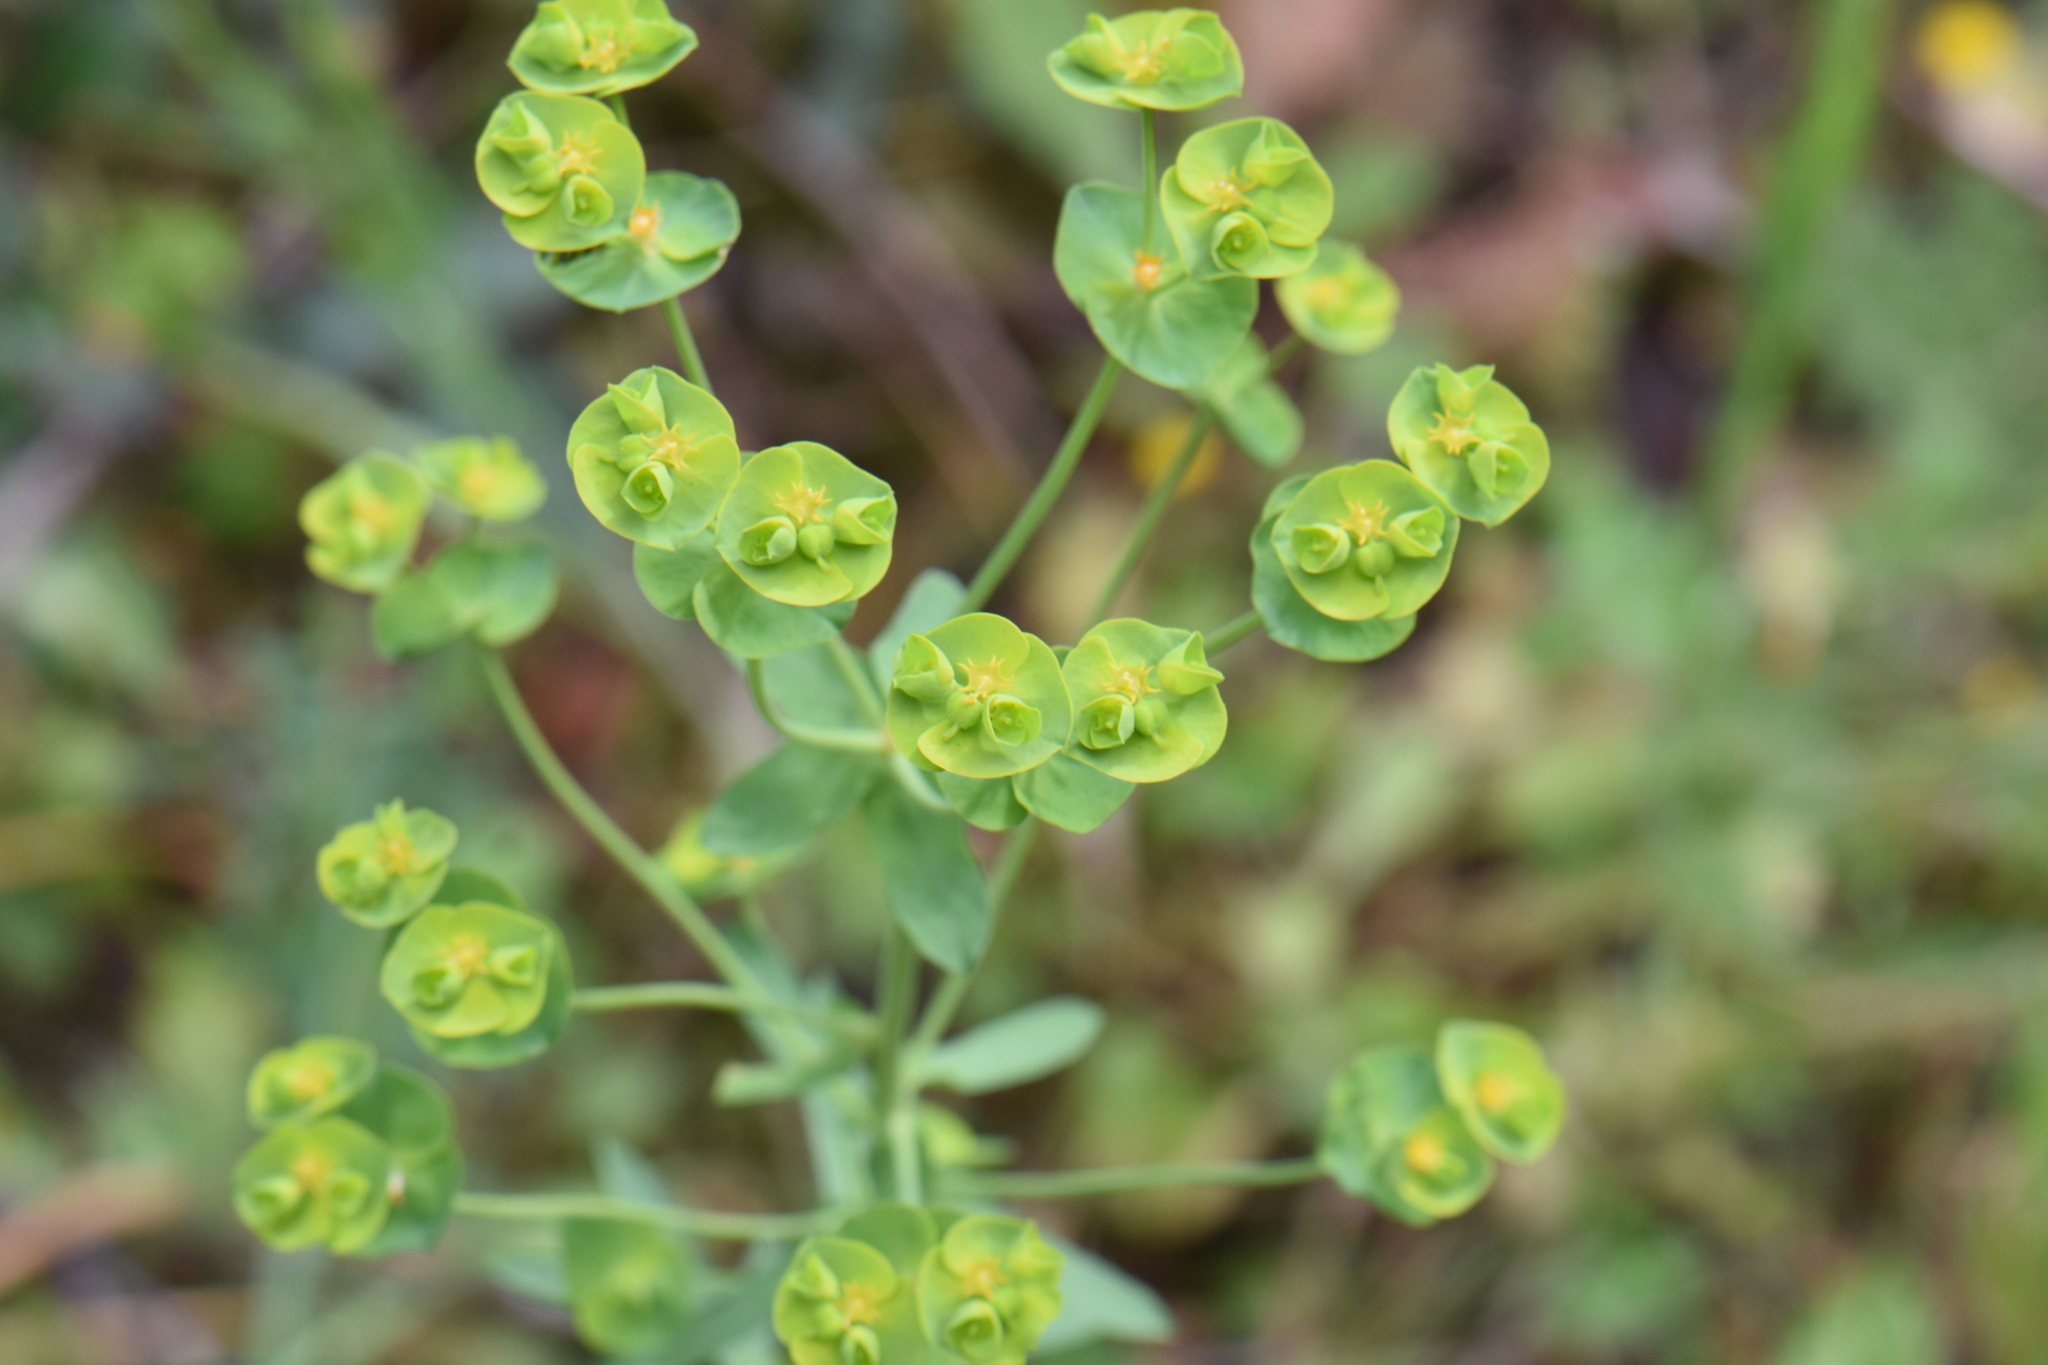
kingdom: Plantae
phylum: Tracheophyta
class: Magnoliopsida
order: Malpighiales
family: Euphorbiaceae
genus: Euphorbia
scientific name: Euphorbia segetalis
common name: Corn spurge
